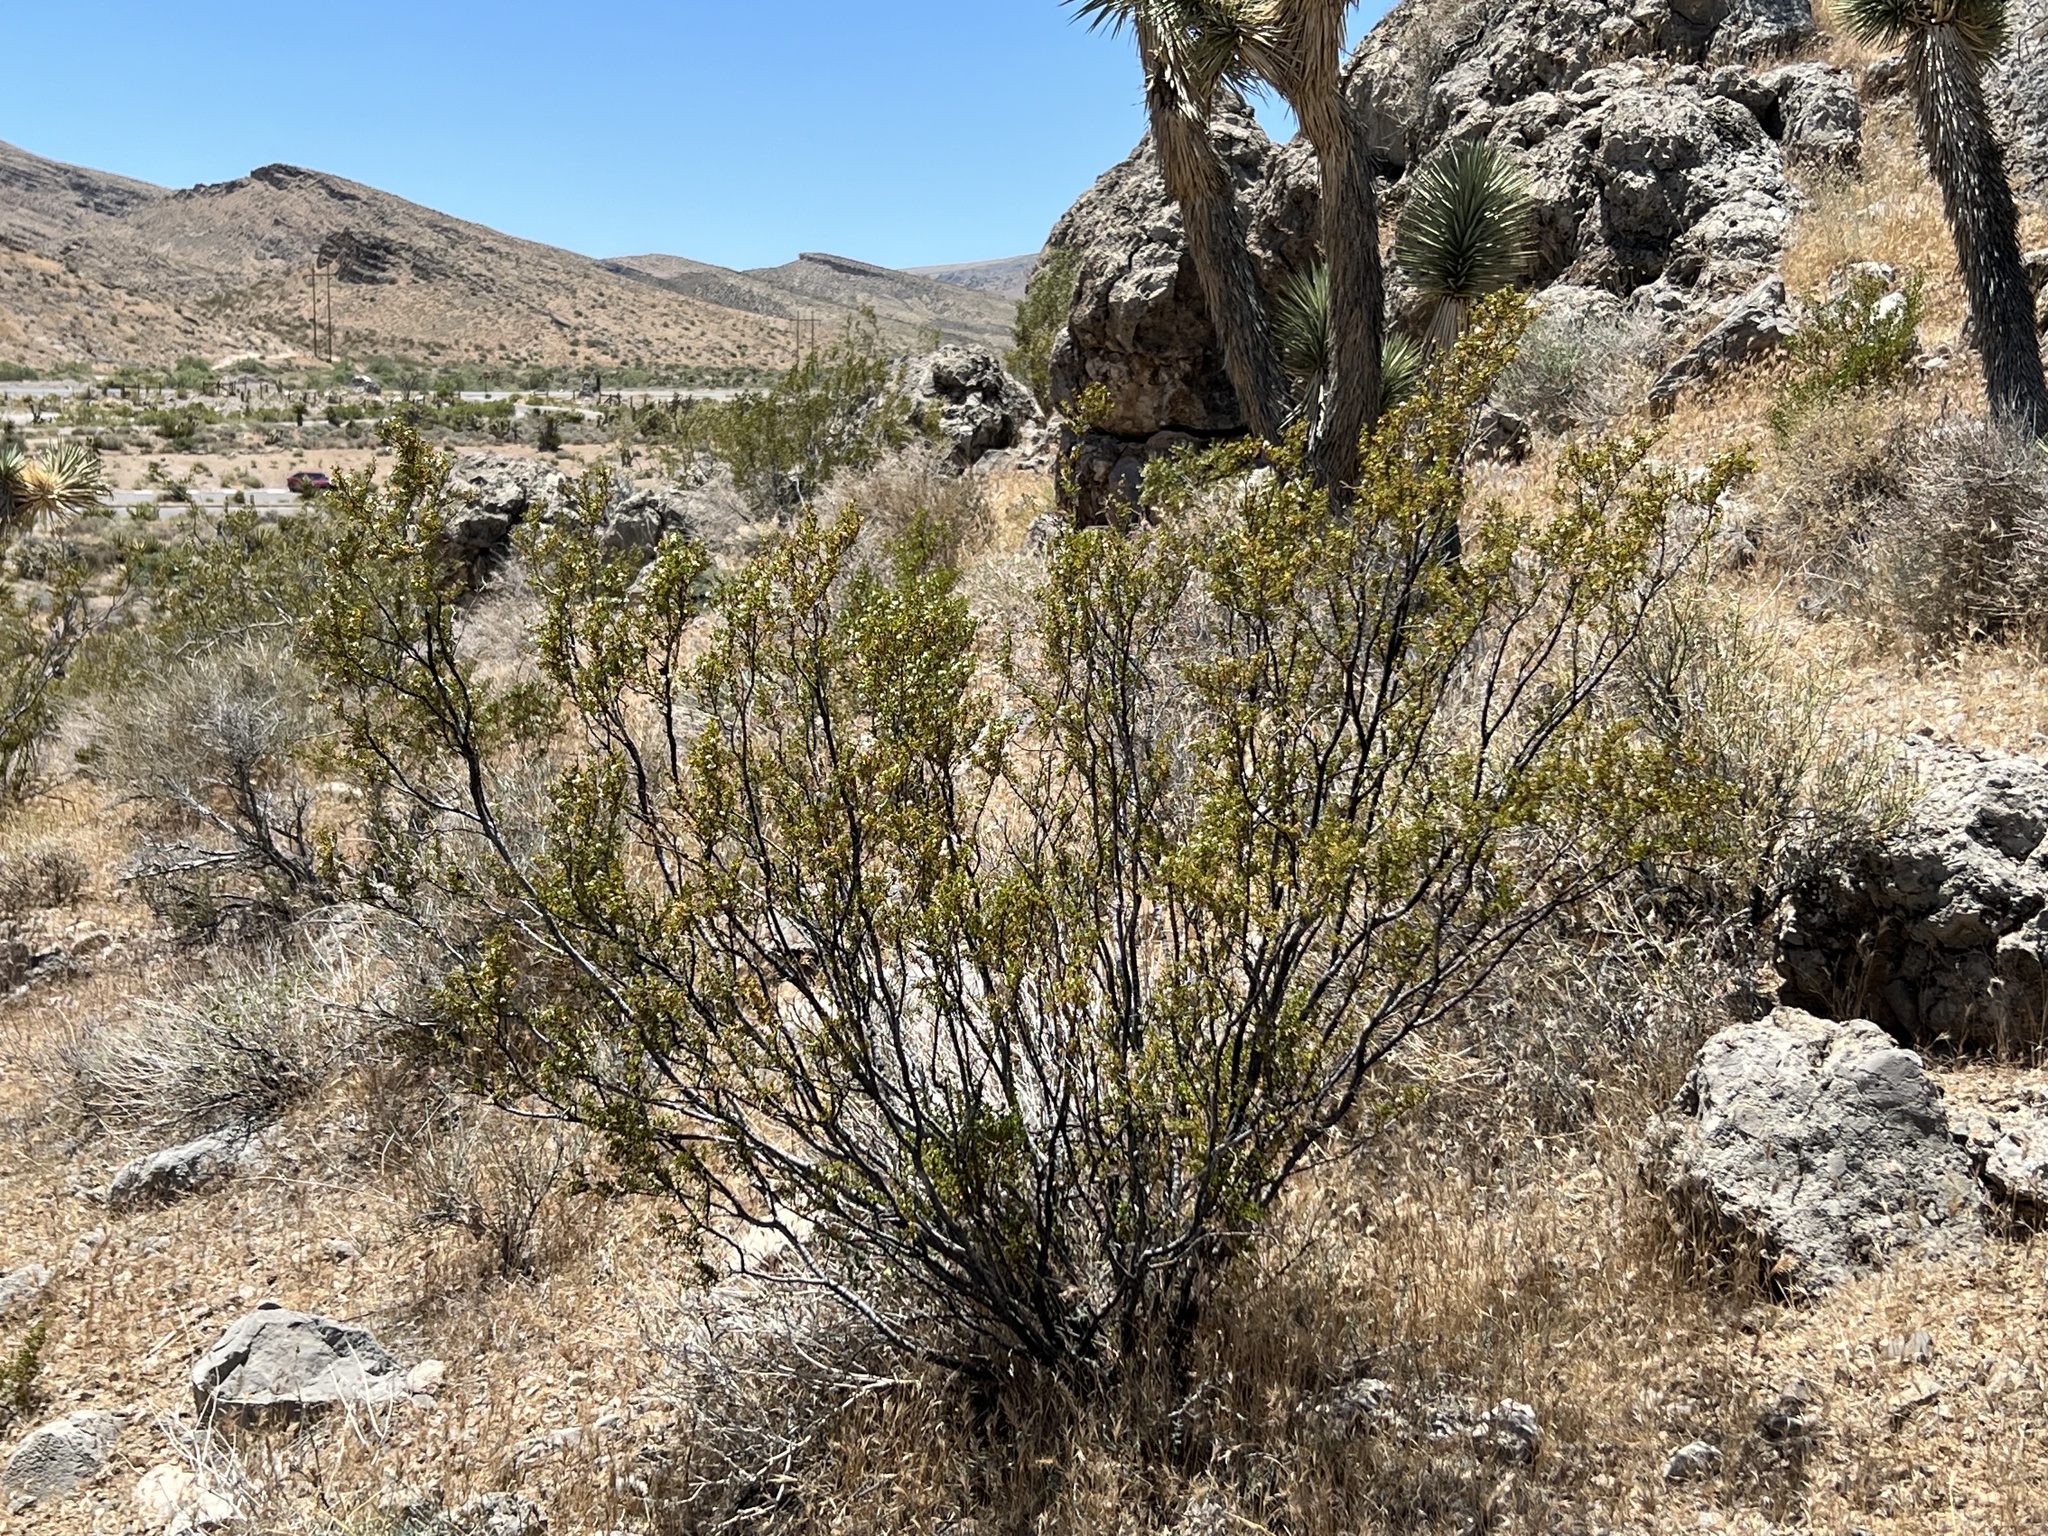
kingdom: Plantae
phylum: Tracheophyta
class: Magnoliopsida
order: Zygophyllales
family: Zygophyllaceae
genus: Larrea
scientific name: Larrea tridentata
